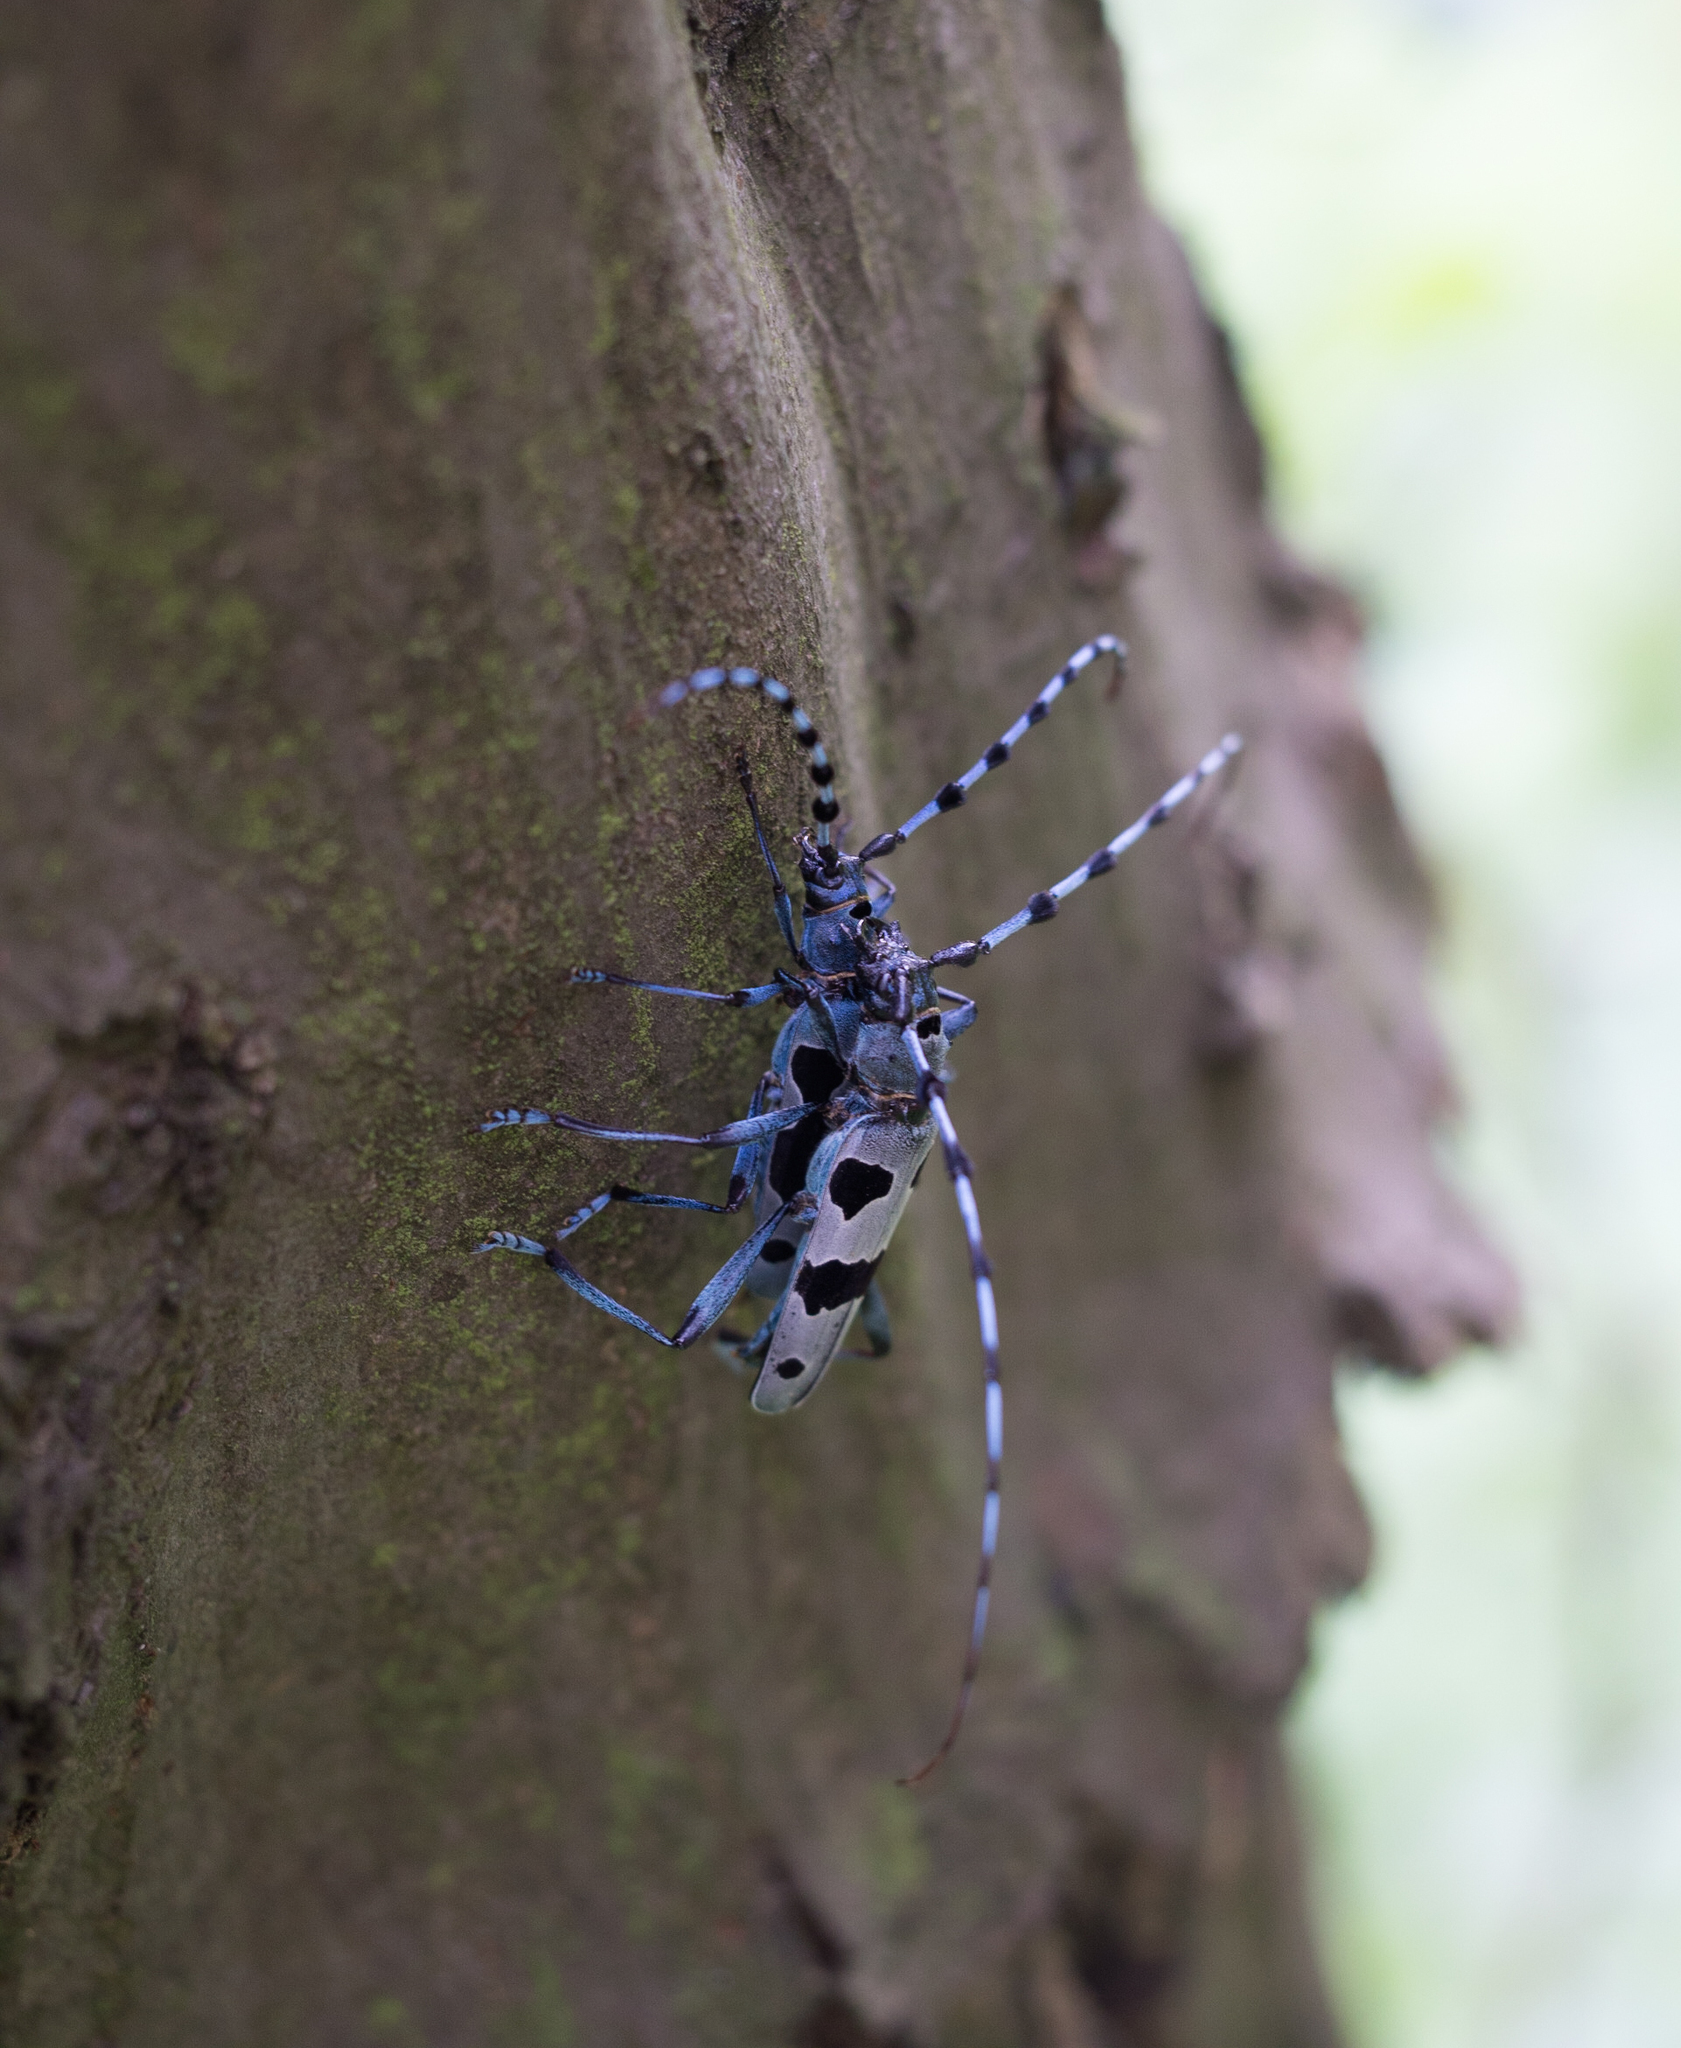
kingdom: Animalia
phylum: Arthropoda
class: Insecta
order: Coleoptera
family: Cerambycidae
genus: Rosalia
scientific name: Rosalia alpina
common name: Rosalia longicorn
